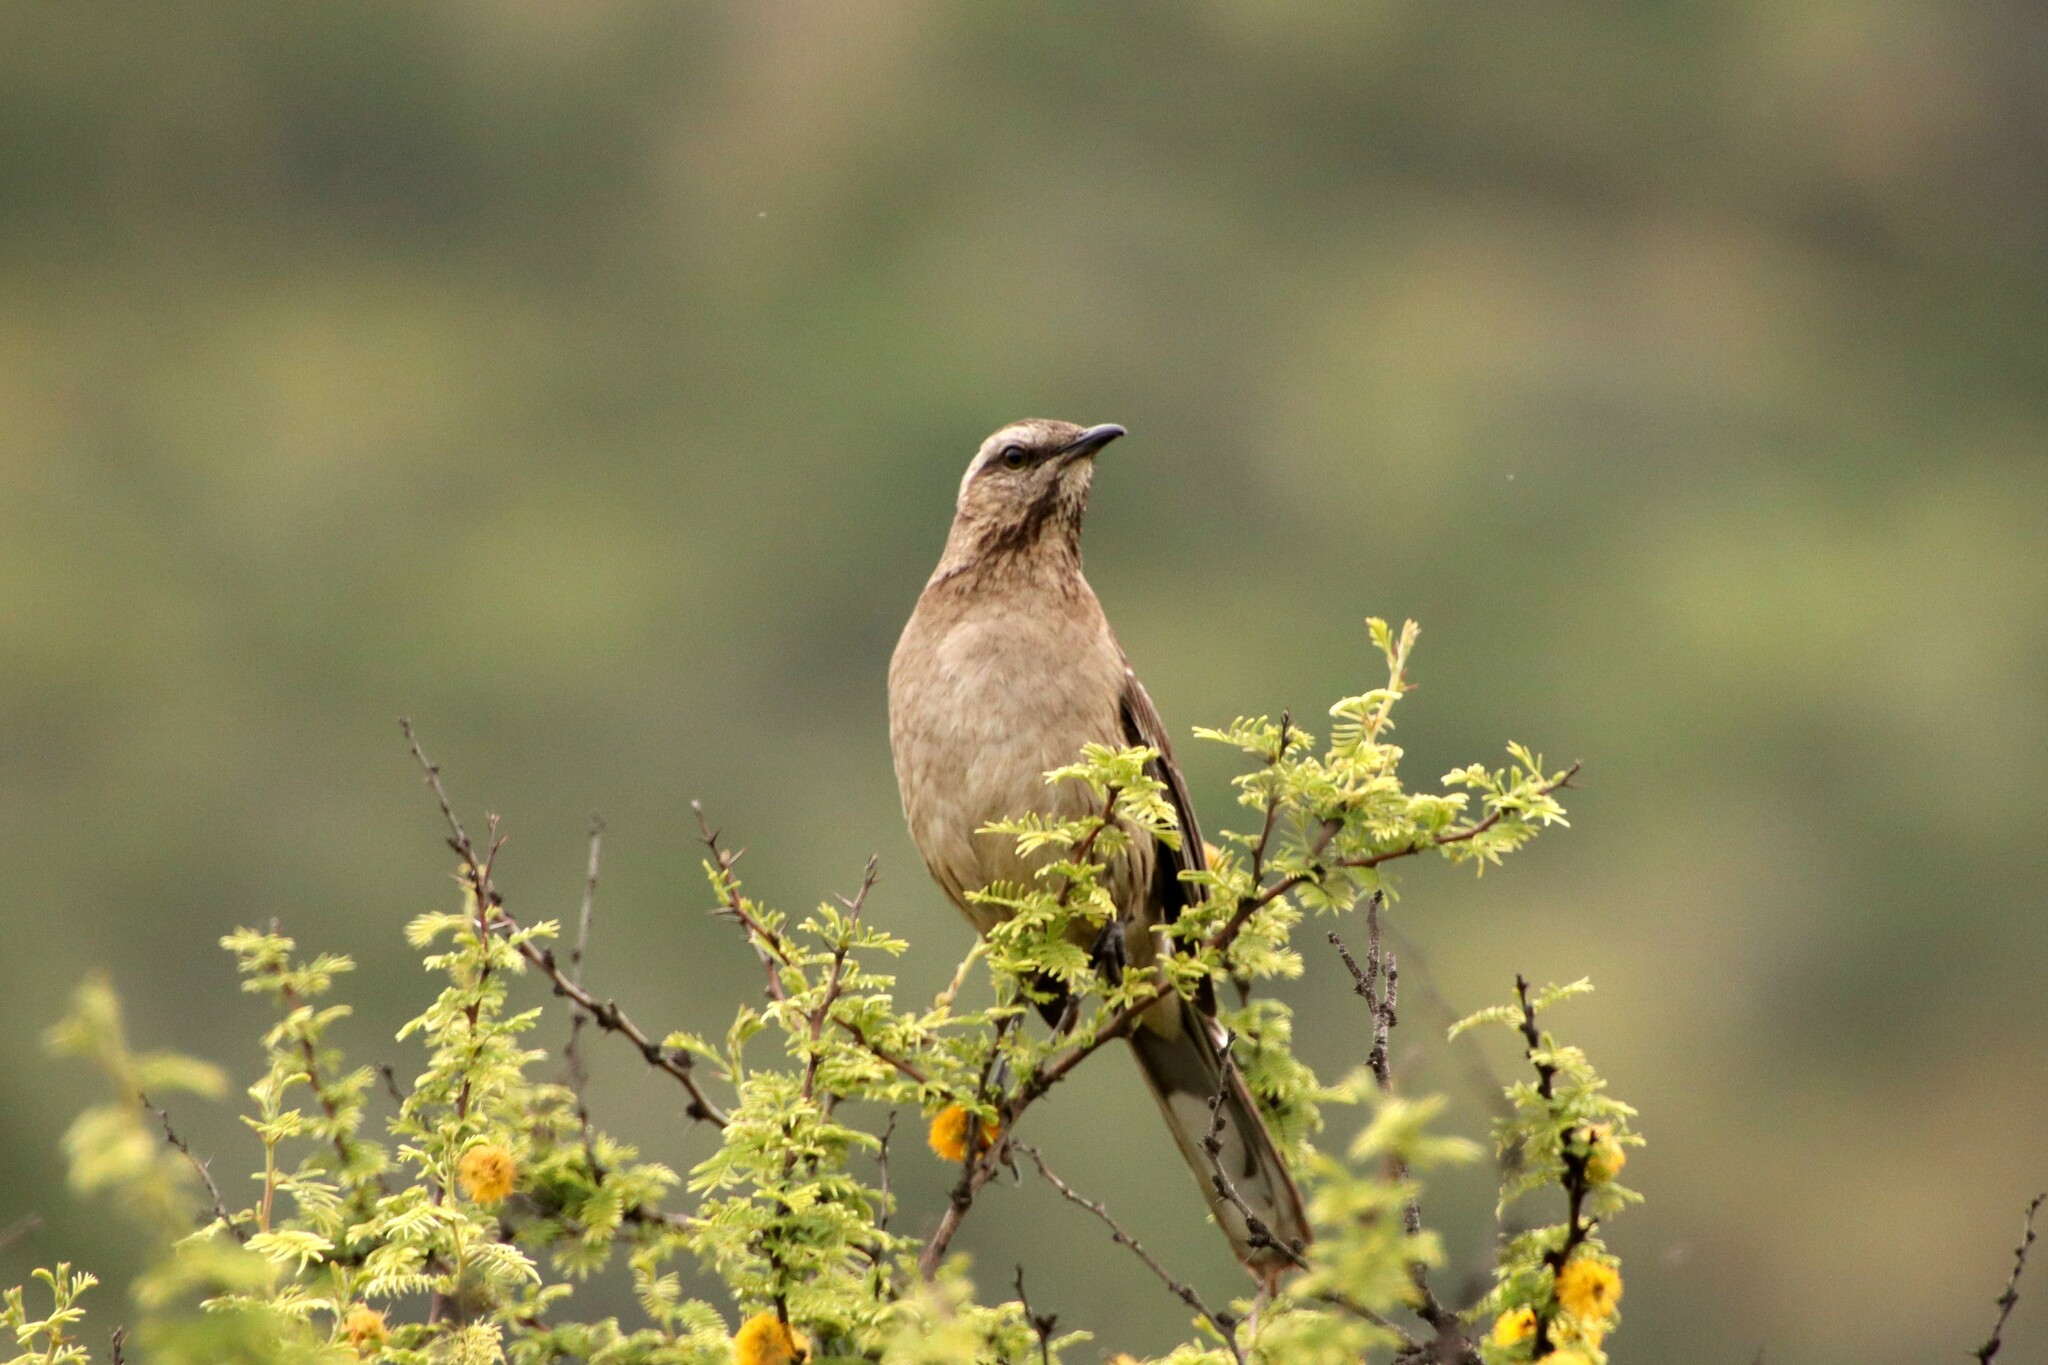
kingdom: Animalia
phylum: Chordata
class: Aves
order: Passeriformes
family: Mimidae
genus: Mimus
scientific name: Mimus thenca
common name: Chilean mockingbird
